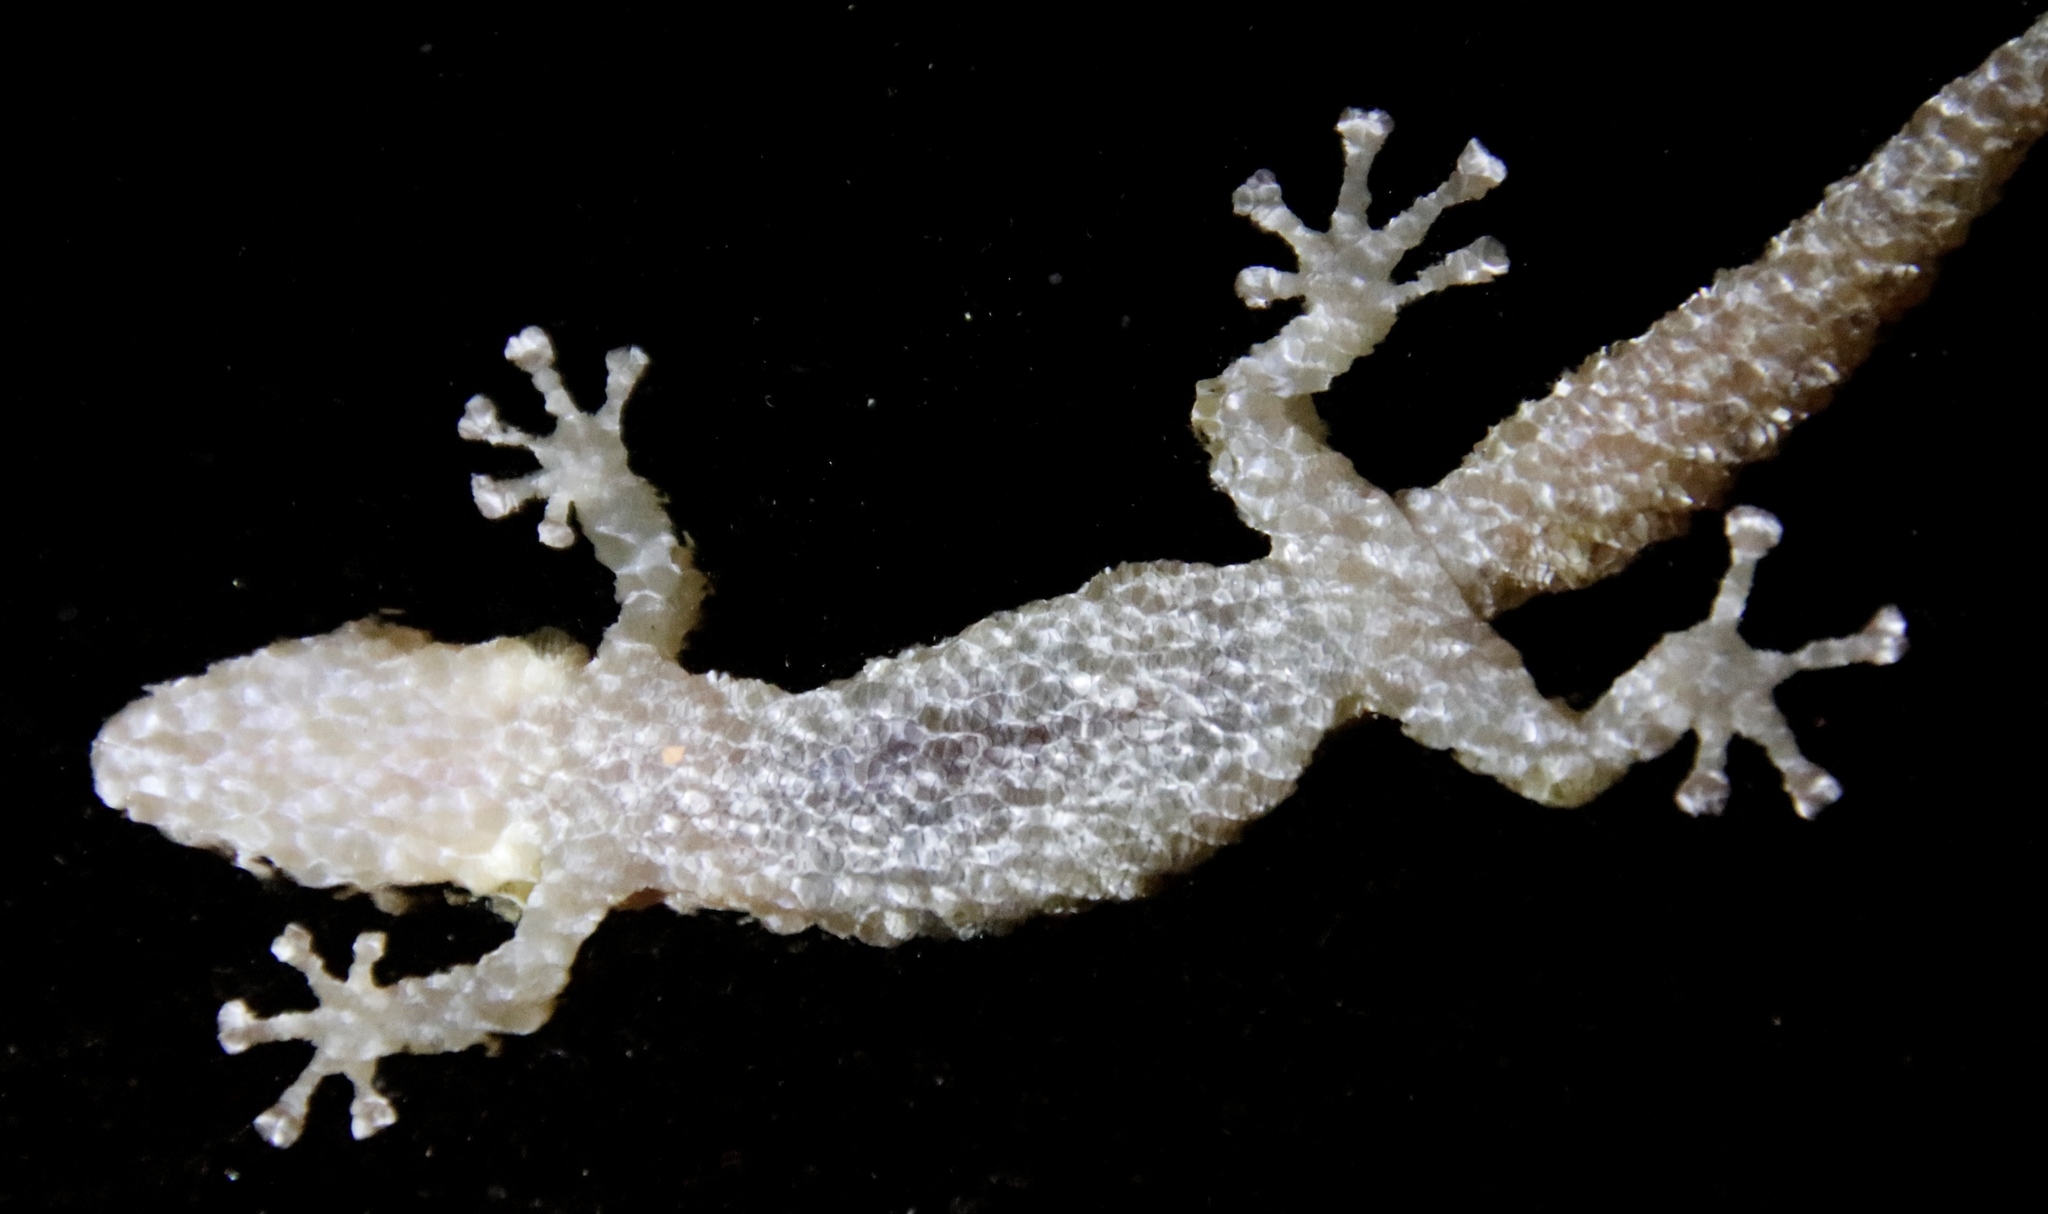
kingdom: Animalia
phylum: Chordata
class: Squamata
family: Gekkonidae
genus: Afrogecko
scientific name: Afrogecko porphyreus
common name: Marbled leaf-toed gecko
